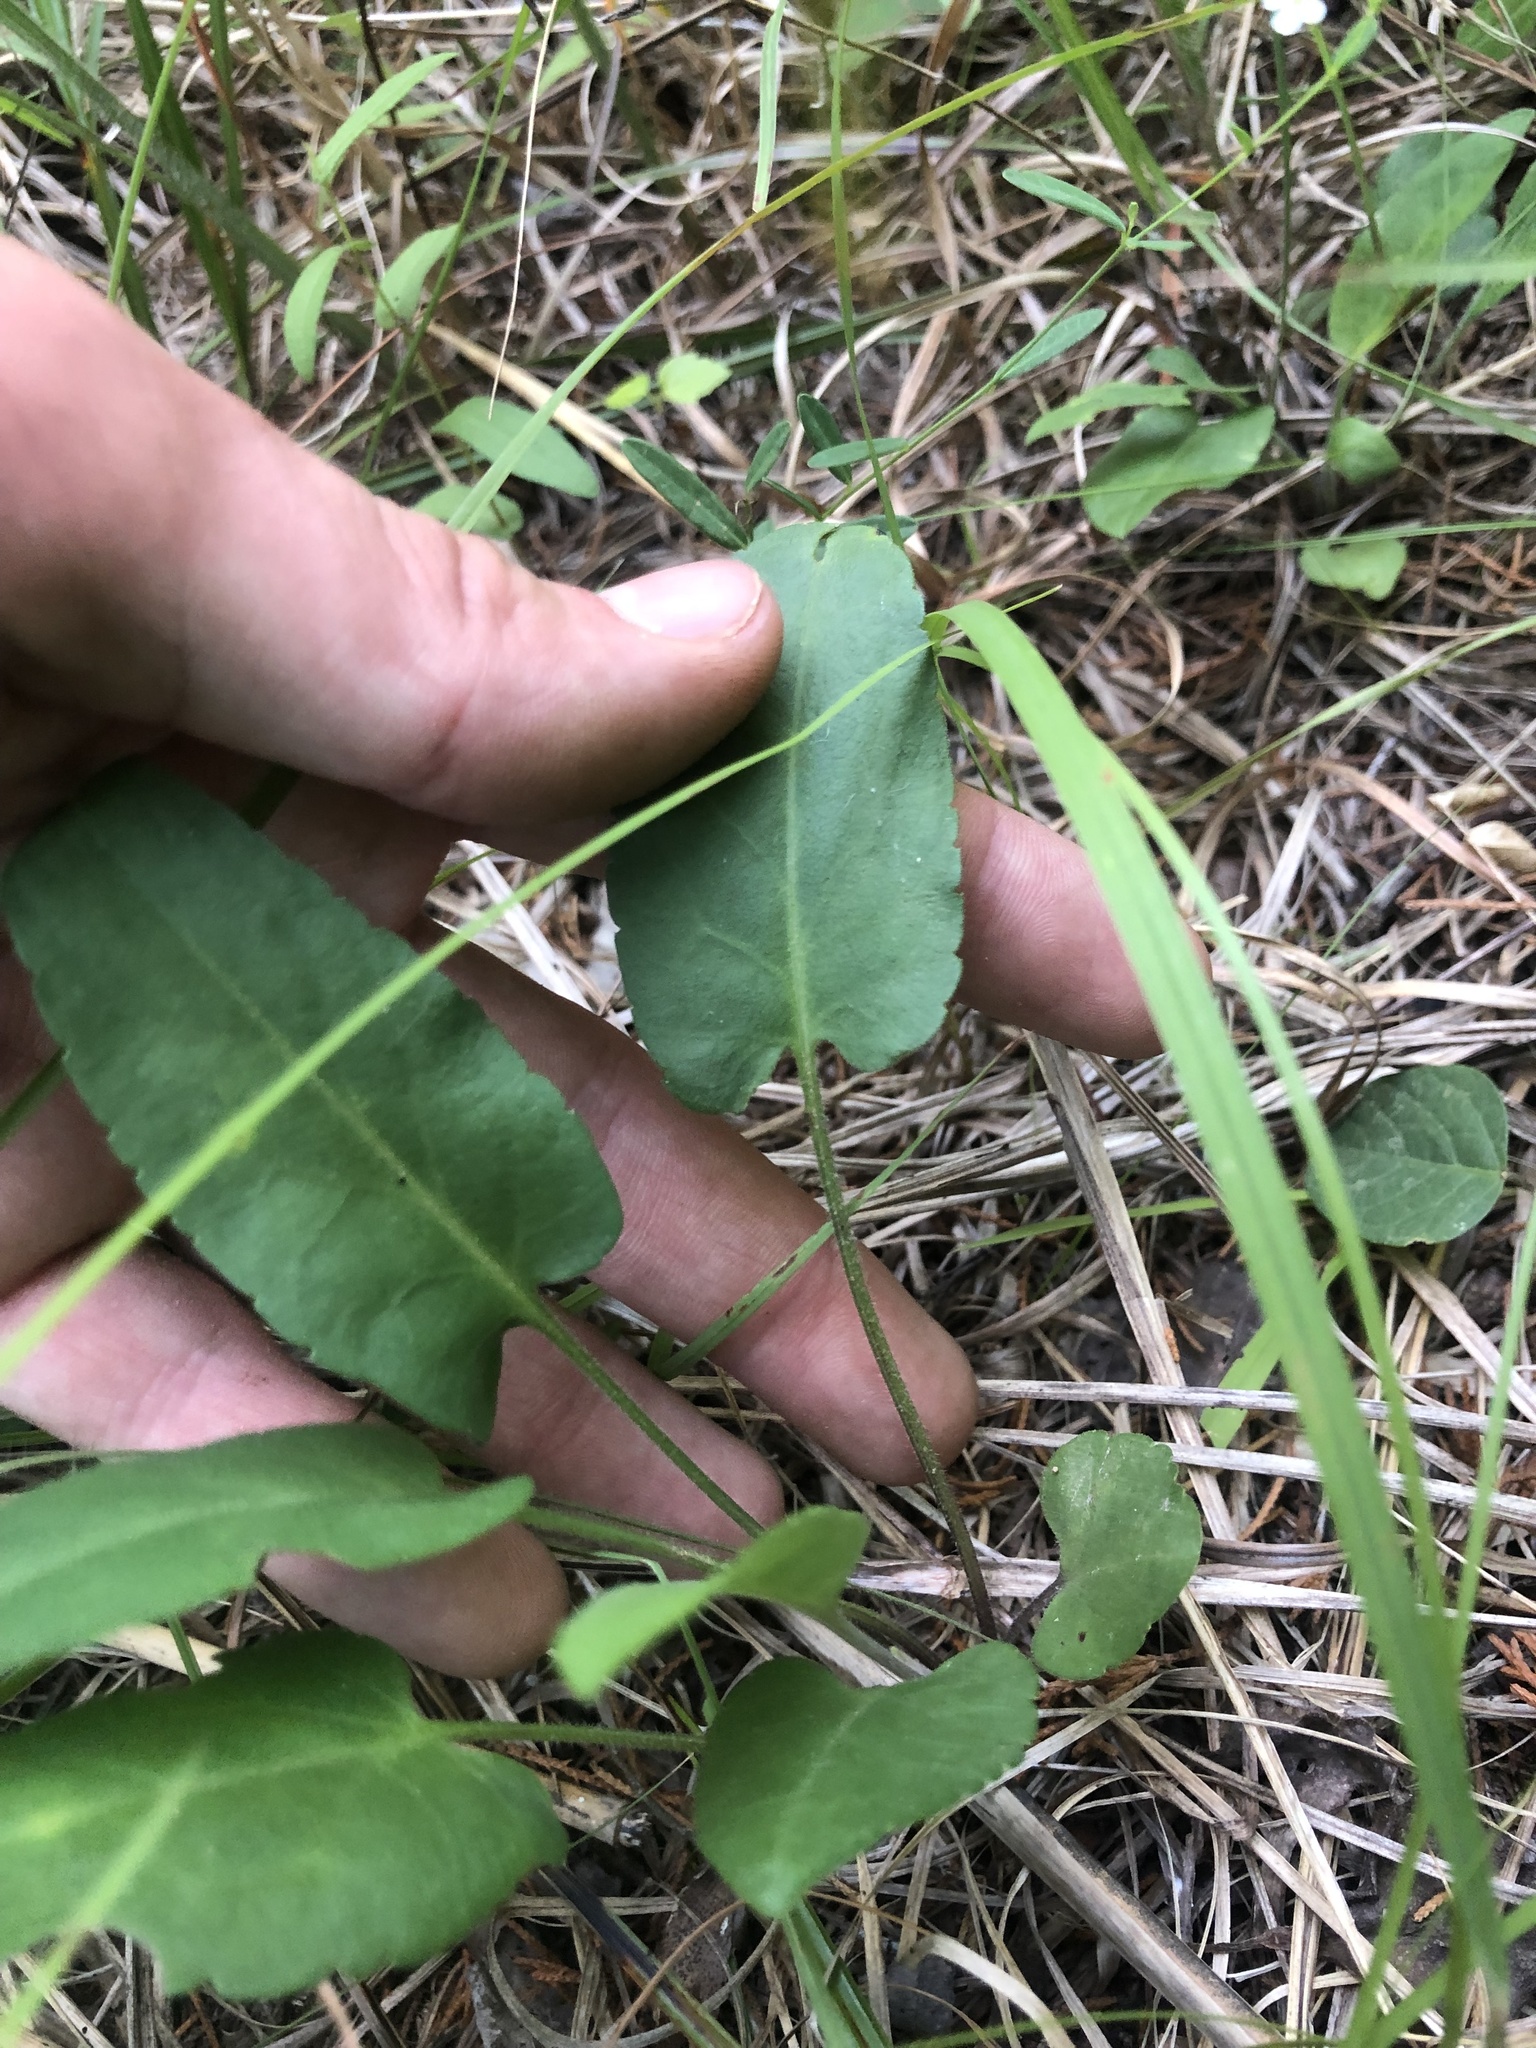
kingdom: Plantae
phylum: Tracheophyta
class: Magnoliopsida
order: Asterales
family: Asteraceae
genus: Symphyotrichum
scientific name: Symphyotrichum oolentangiense
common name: Azure aster
